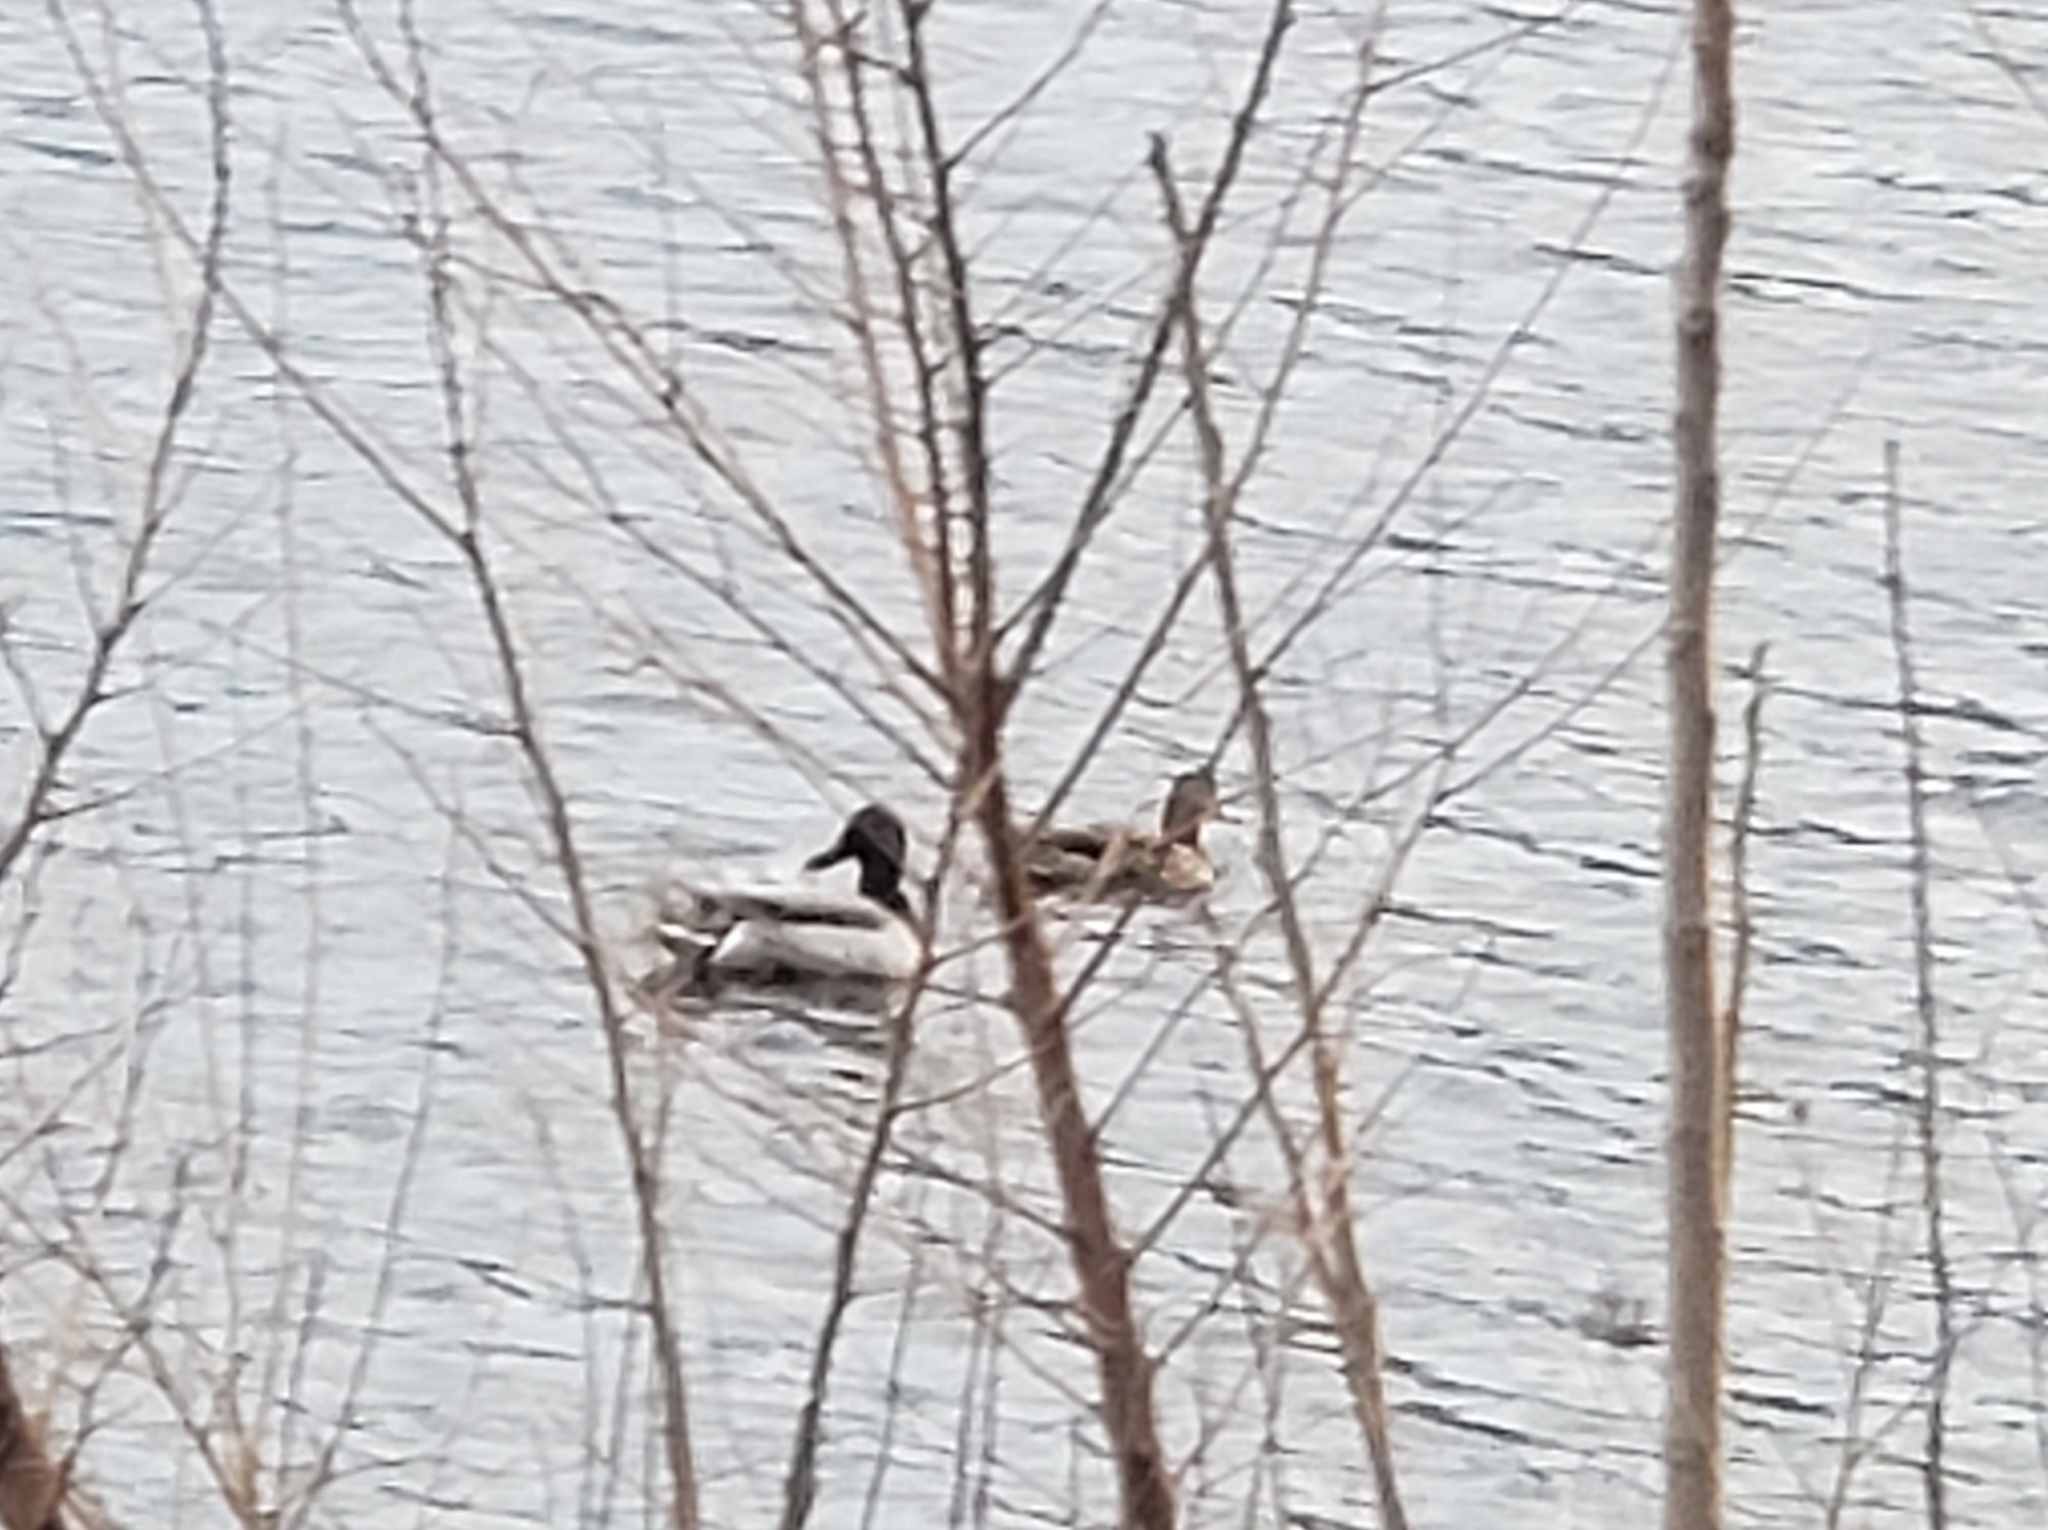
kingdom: Animalia
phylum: Chordata
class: Aves
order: Anseriformes
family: Anatidae
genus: Anas
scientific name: Anas platyrhynchos
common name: Mallard
